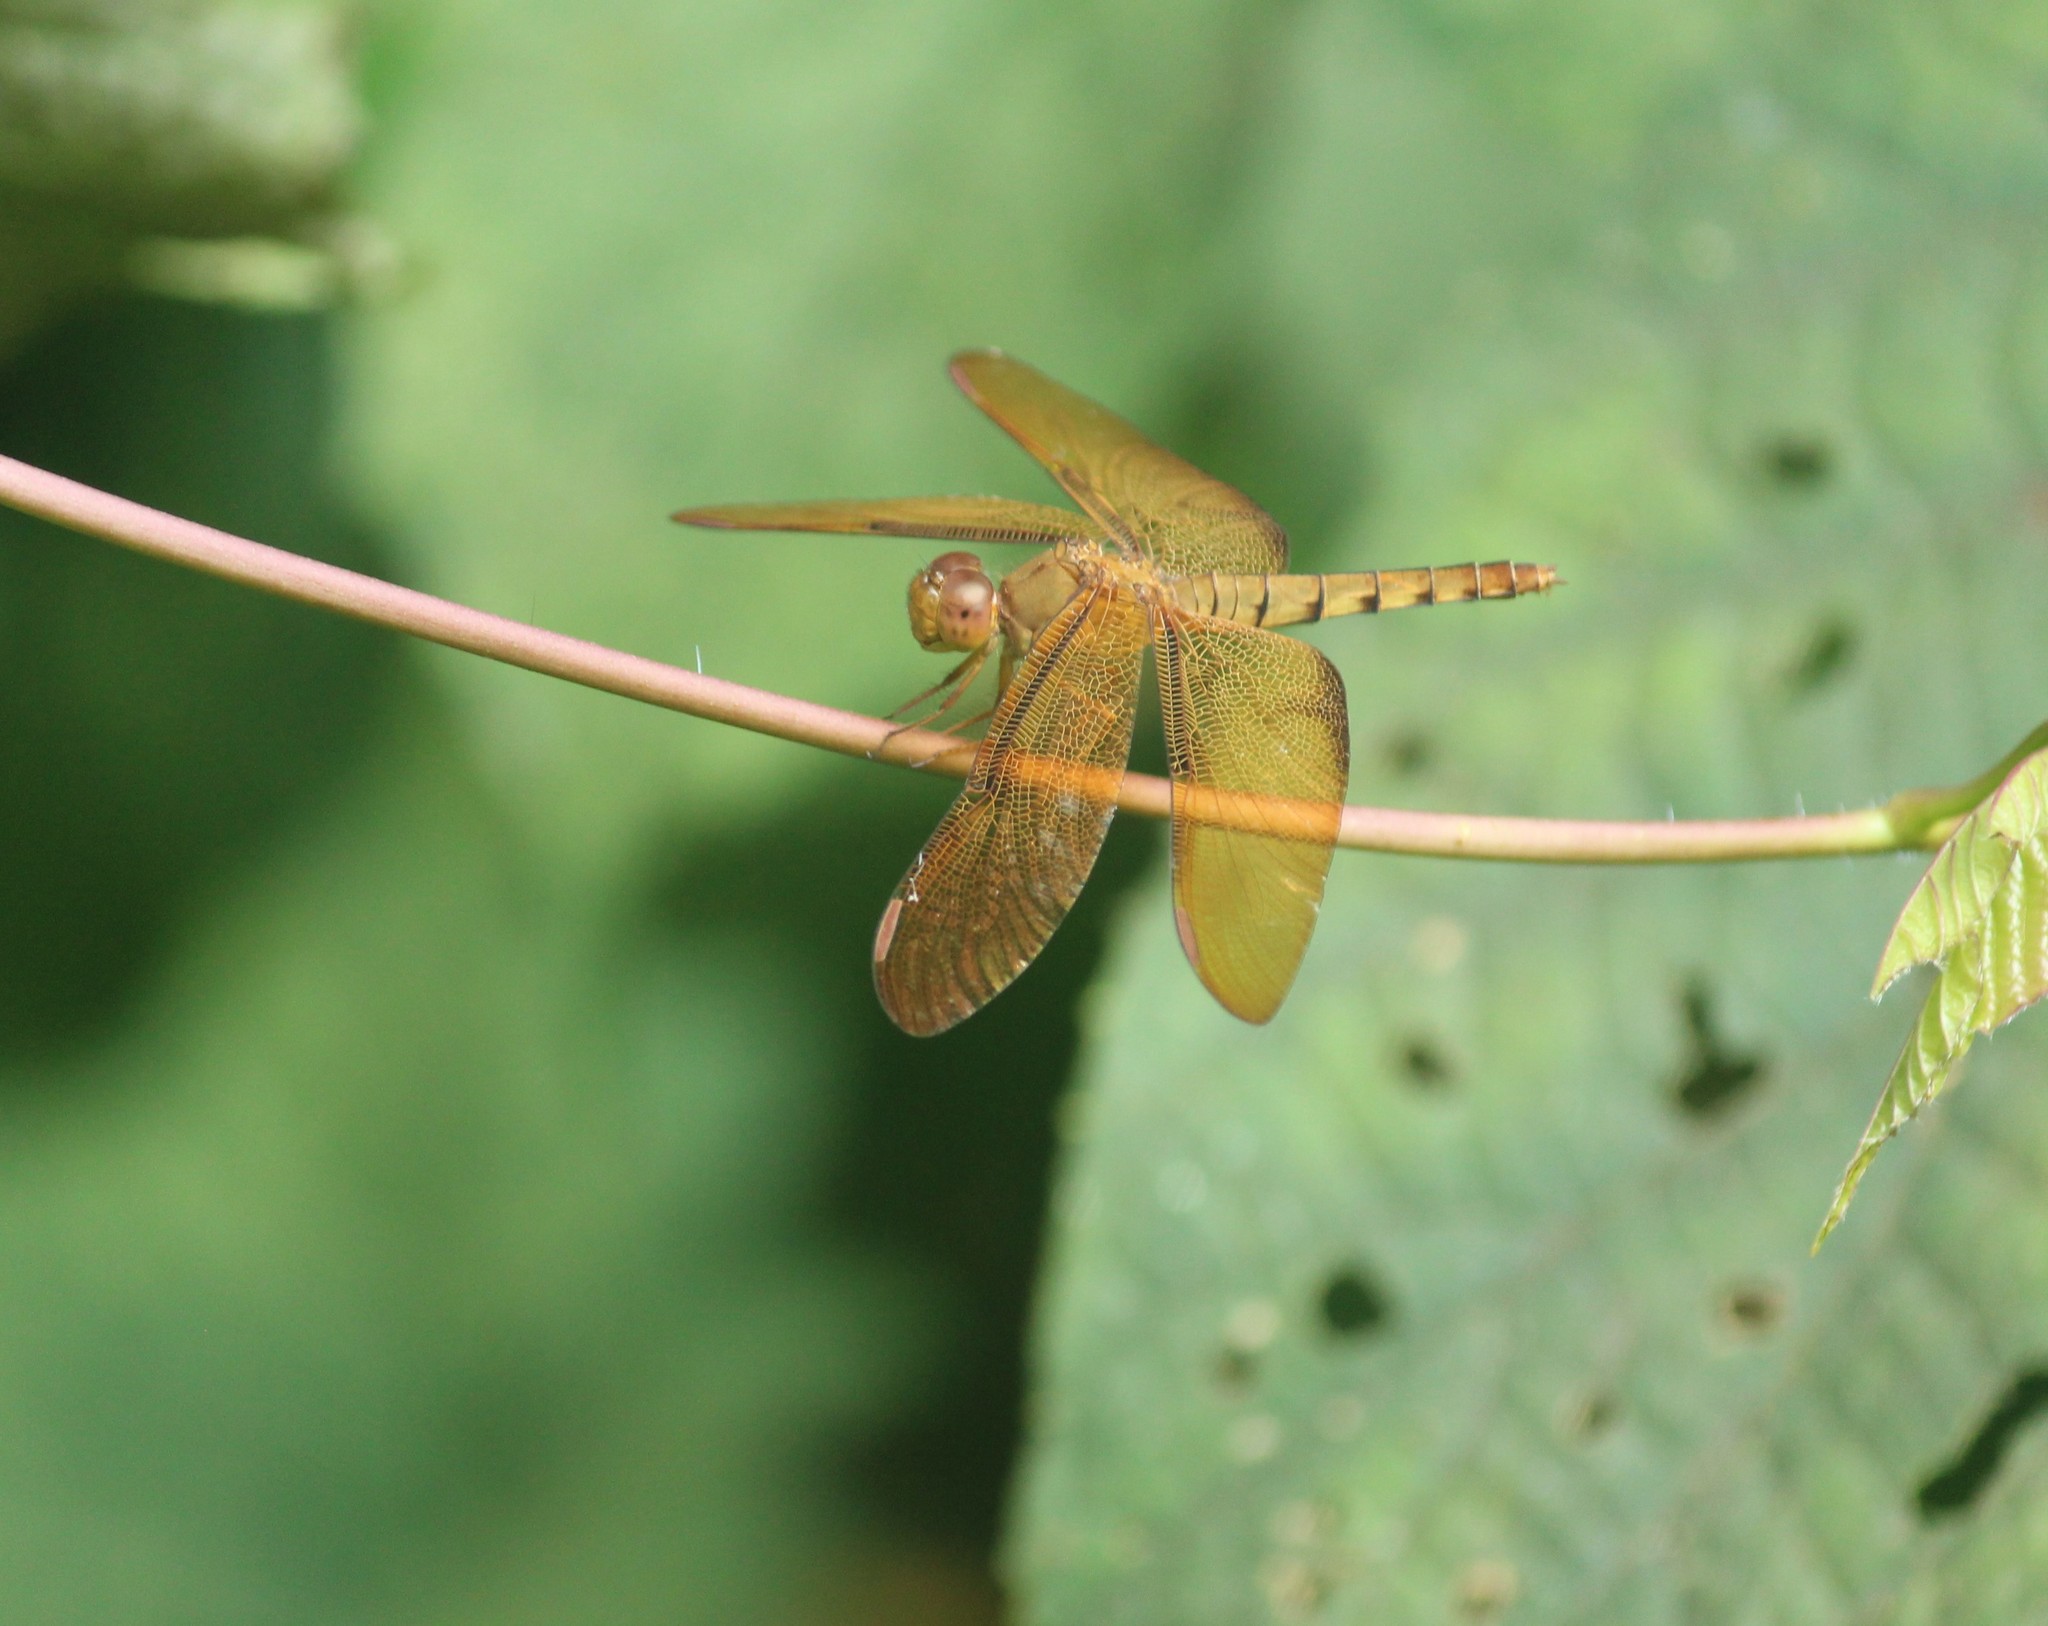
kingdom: Animalia
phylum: Arthropoda
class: Insecta
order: Odonata
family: Libellulidae
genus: Neurothemis
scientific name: Neurothemis fulvia
